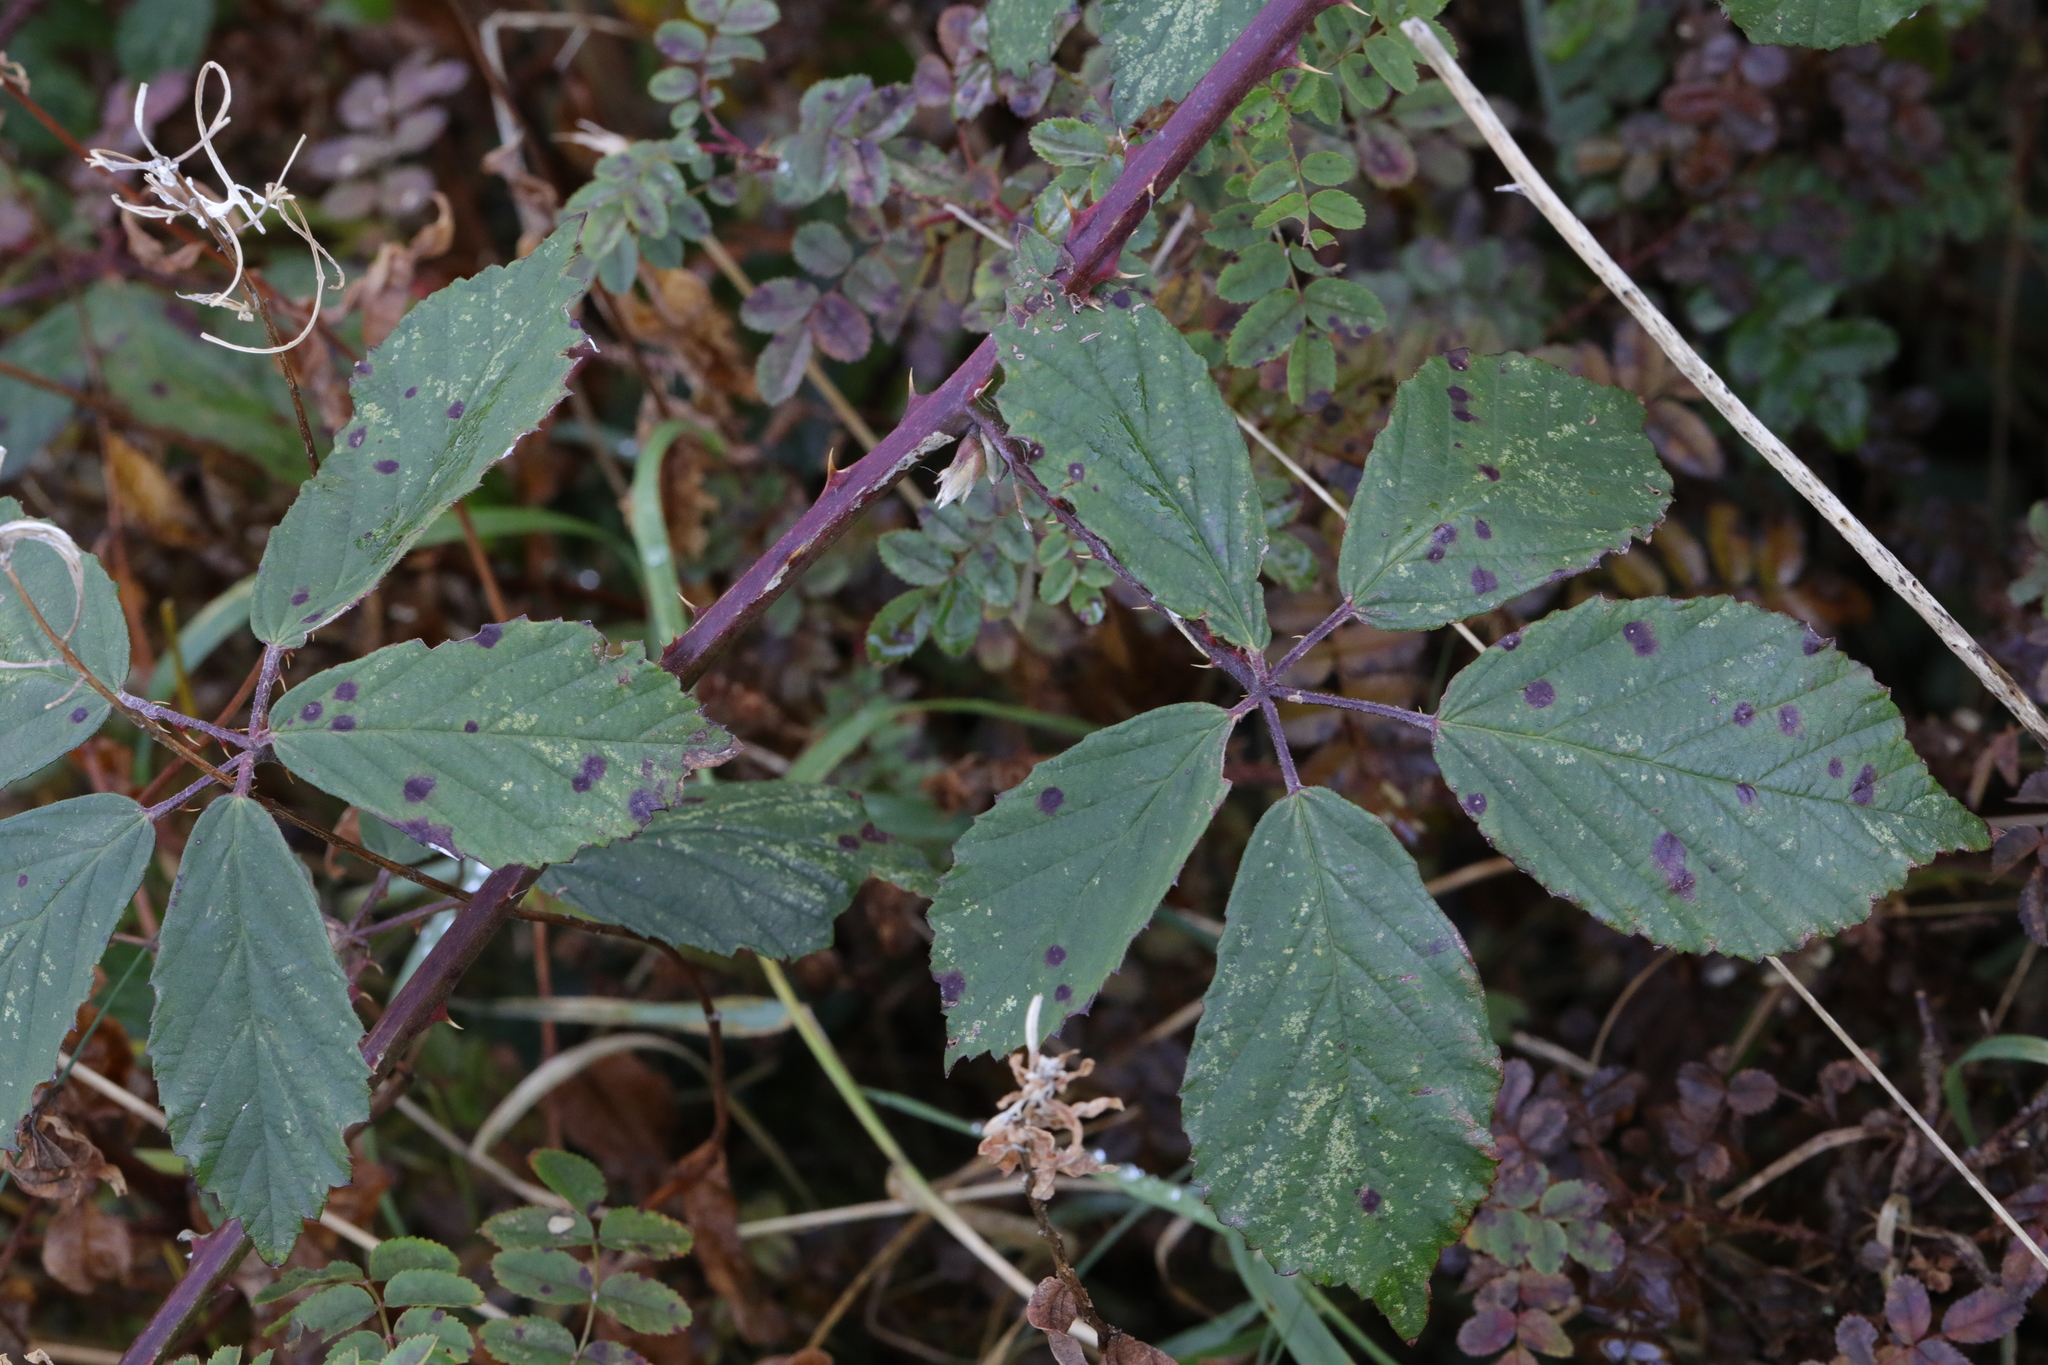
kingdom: Plantae
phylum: Tracheophyta
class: Magnoliopsida
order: Rosales
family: Rosaceae
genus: Rubus
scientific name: Rubus lindleyanus
